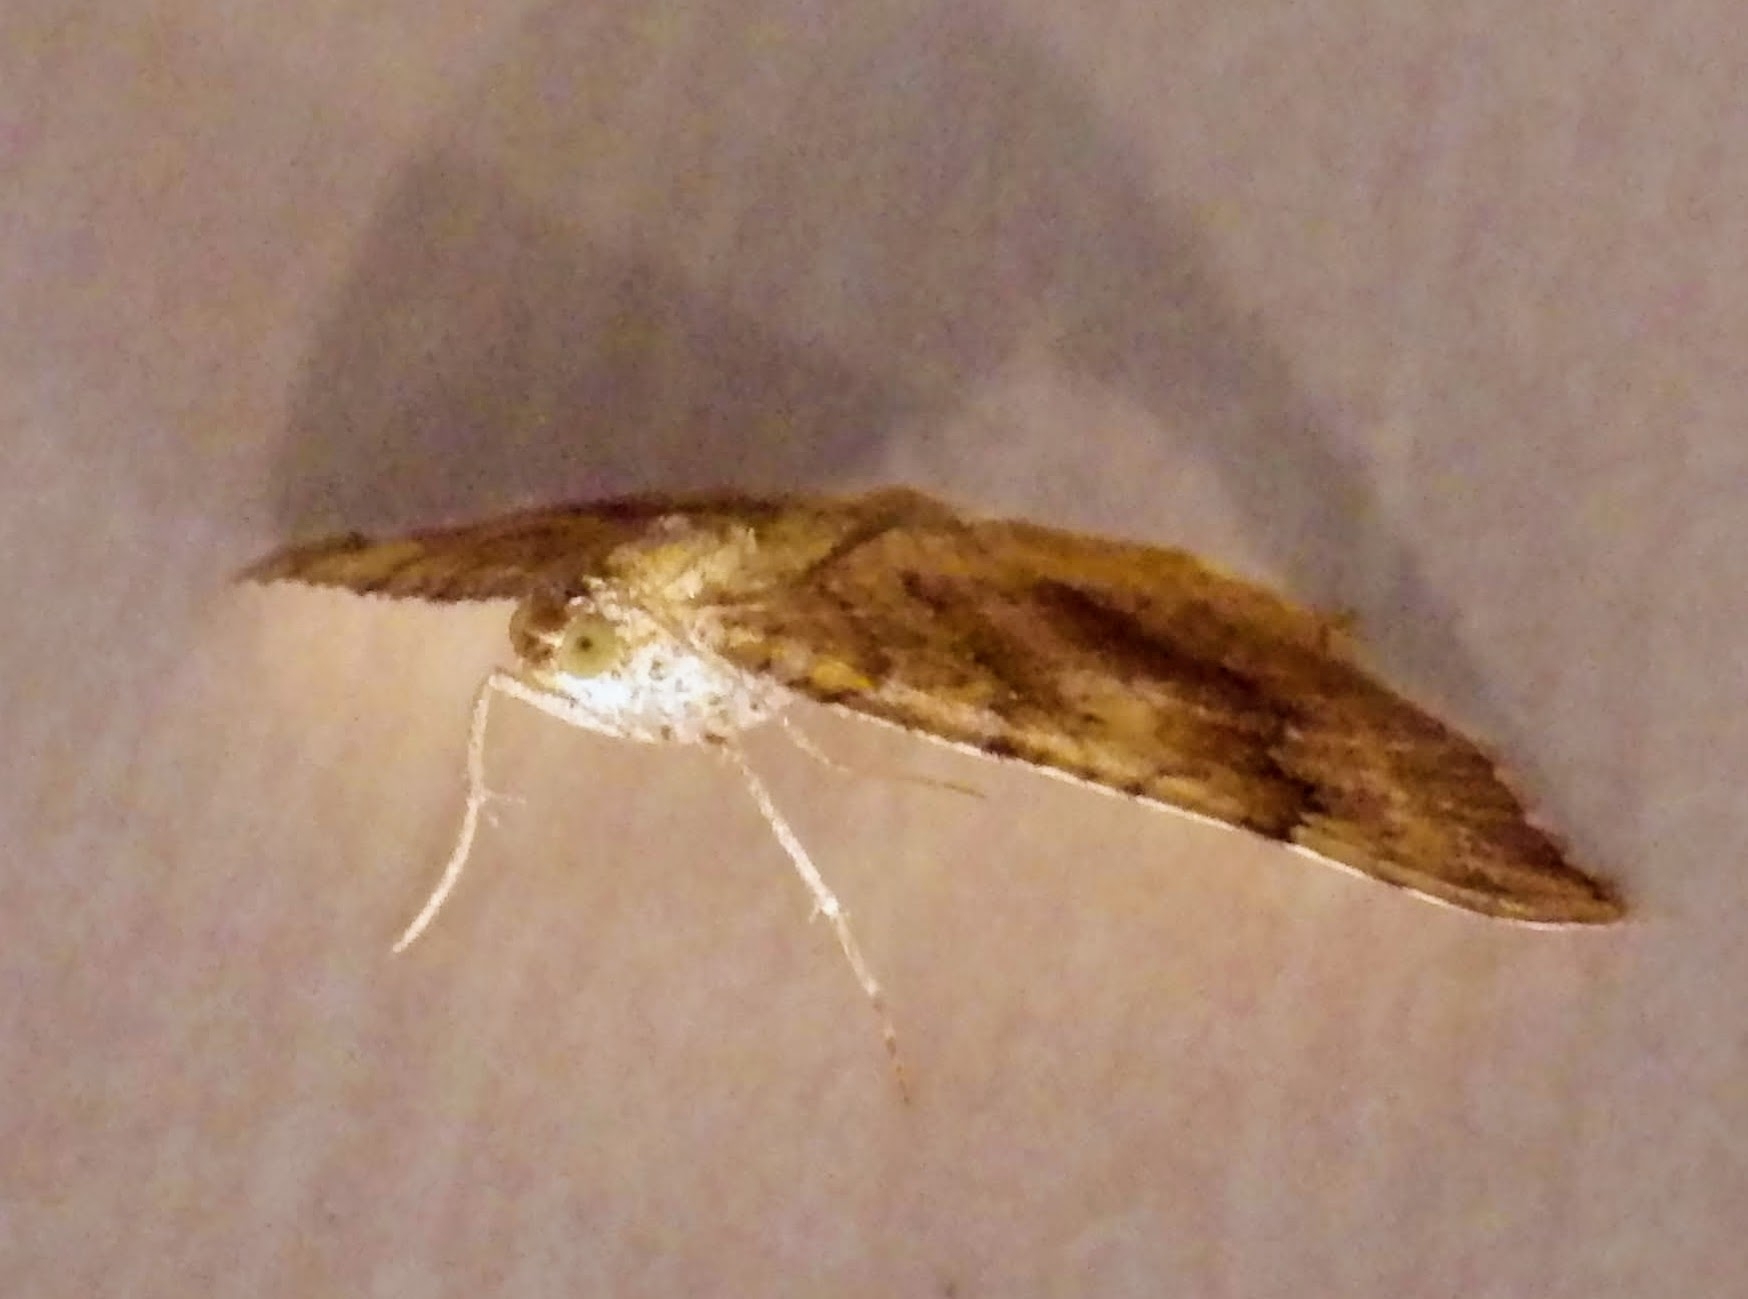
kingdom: Animalia
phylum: Arthropoda
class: Insecta
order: Lepidoptera
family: Geometridae
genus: Camptogramma
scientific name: Camptogramma bilineata
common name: Yellow shell
